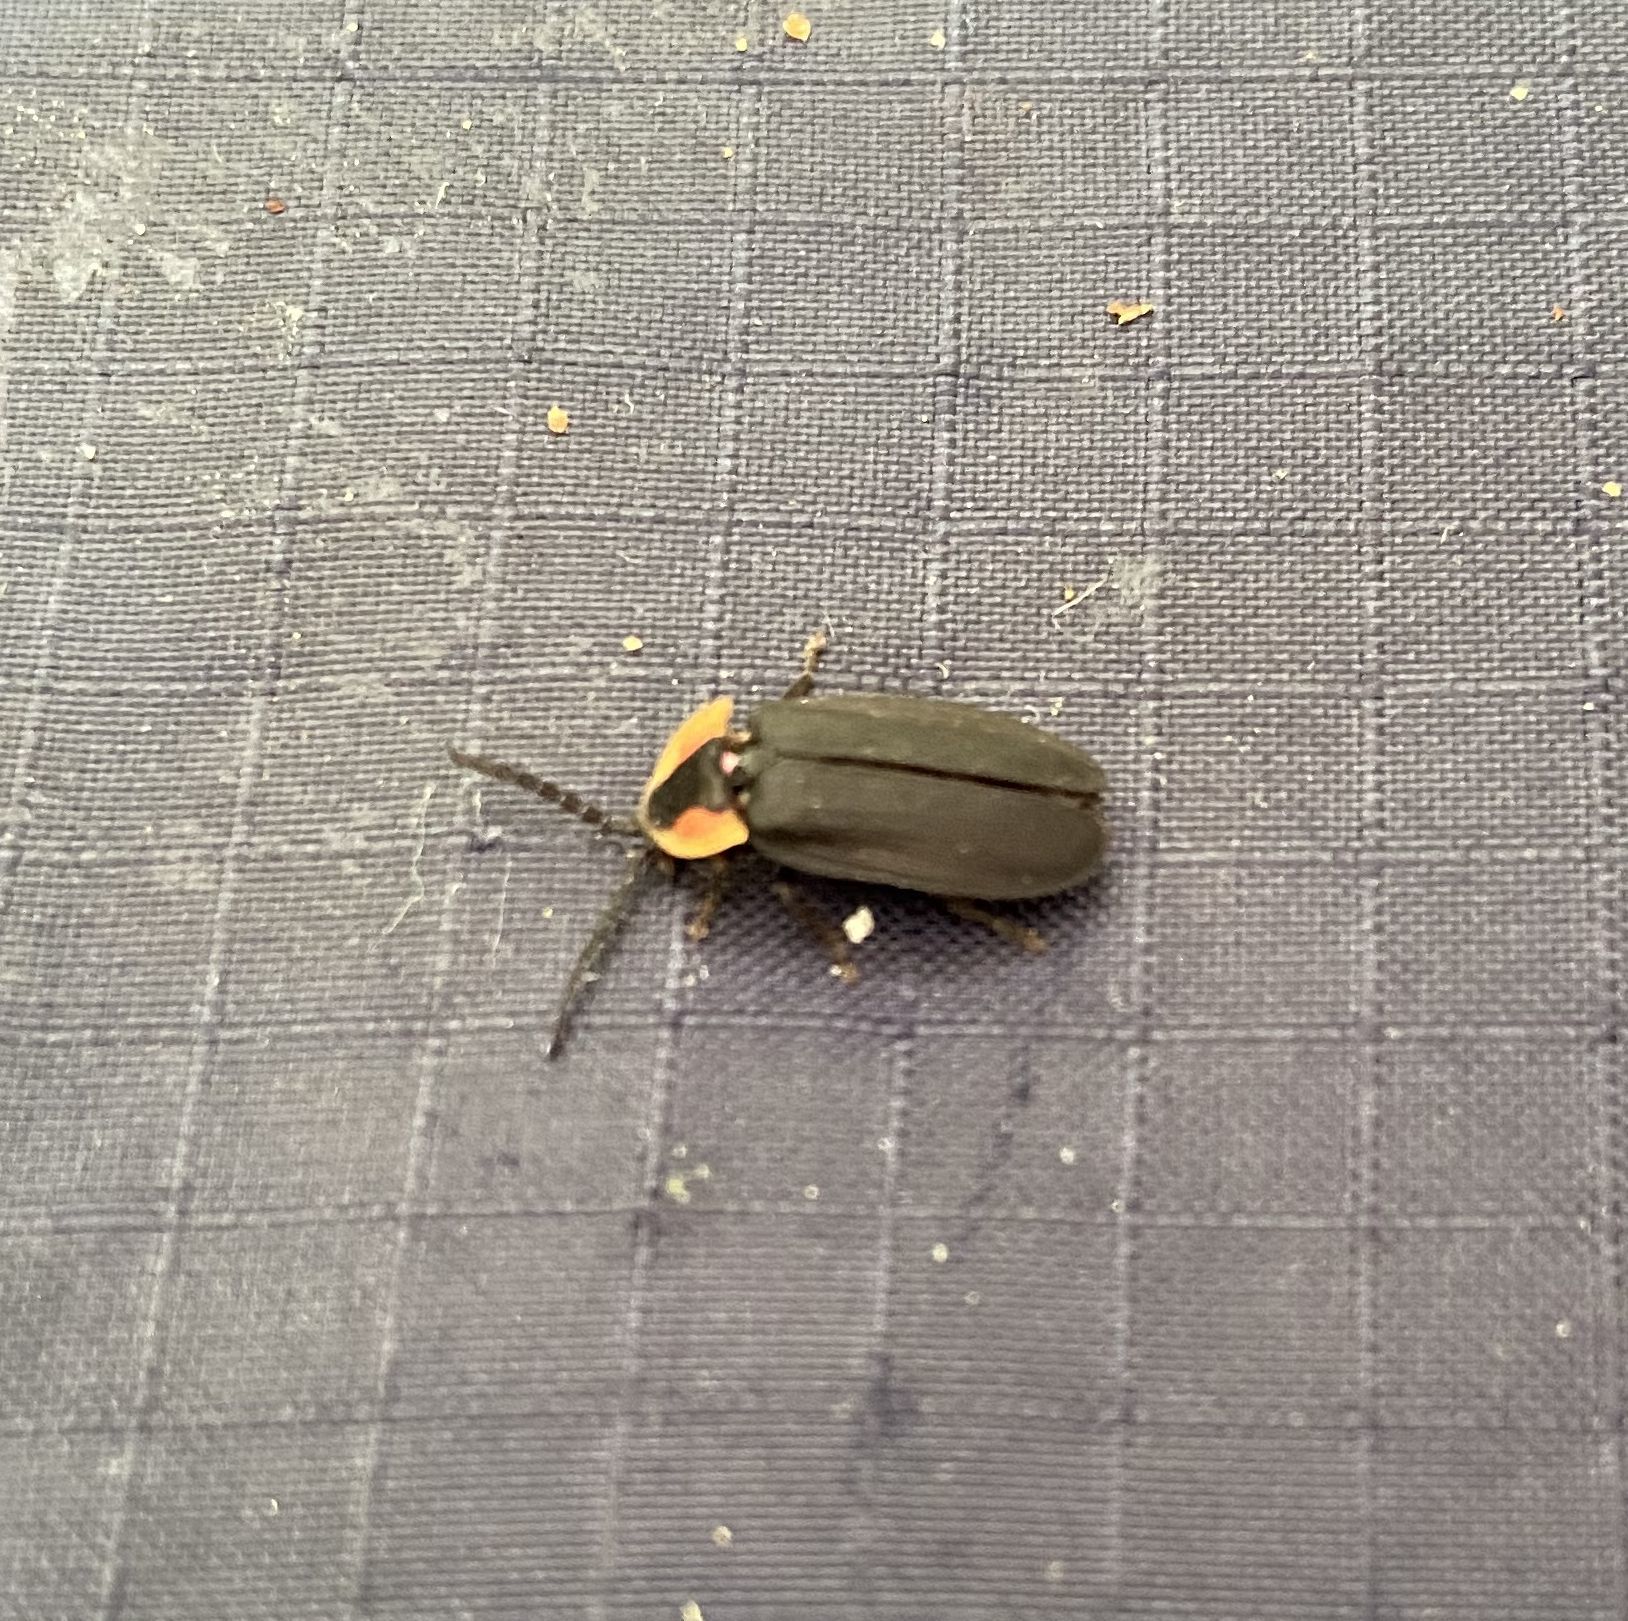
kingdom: Animalia
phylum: Arthropoda
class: Insecta
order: Coleoptera
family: Lampyridae
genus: Lucidota
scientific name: Lucidota atra
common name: Black firefly
